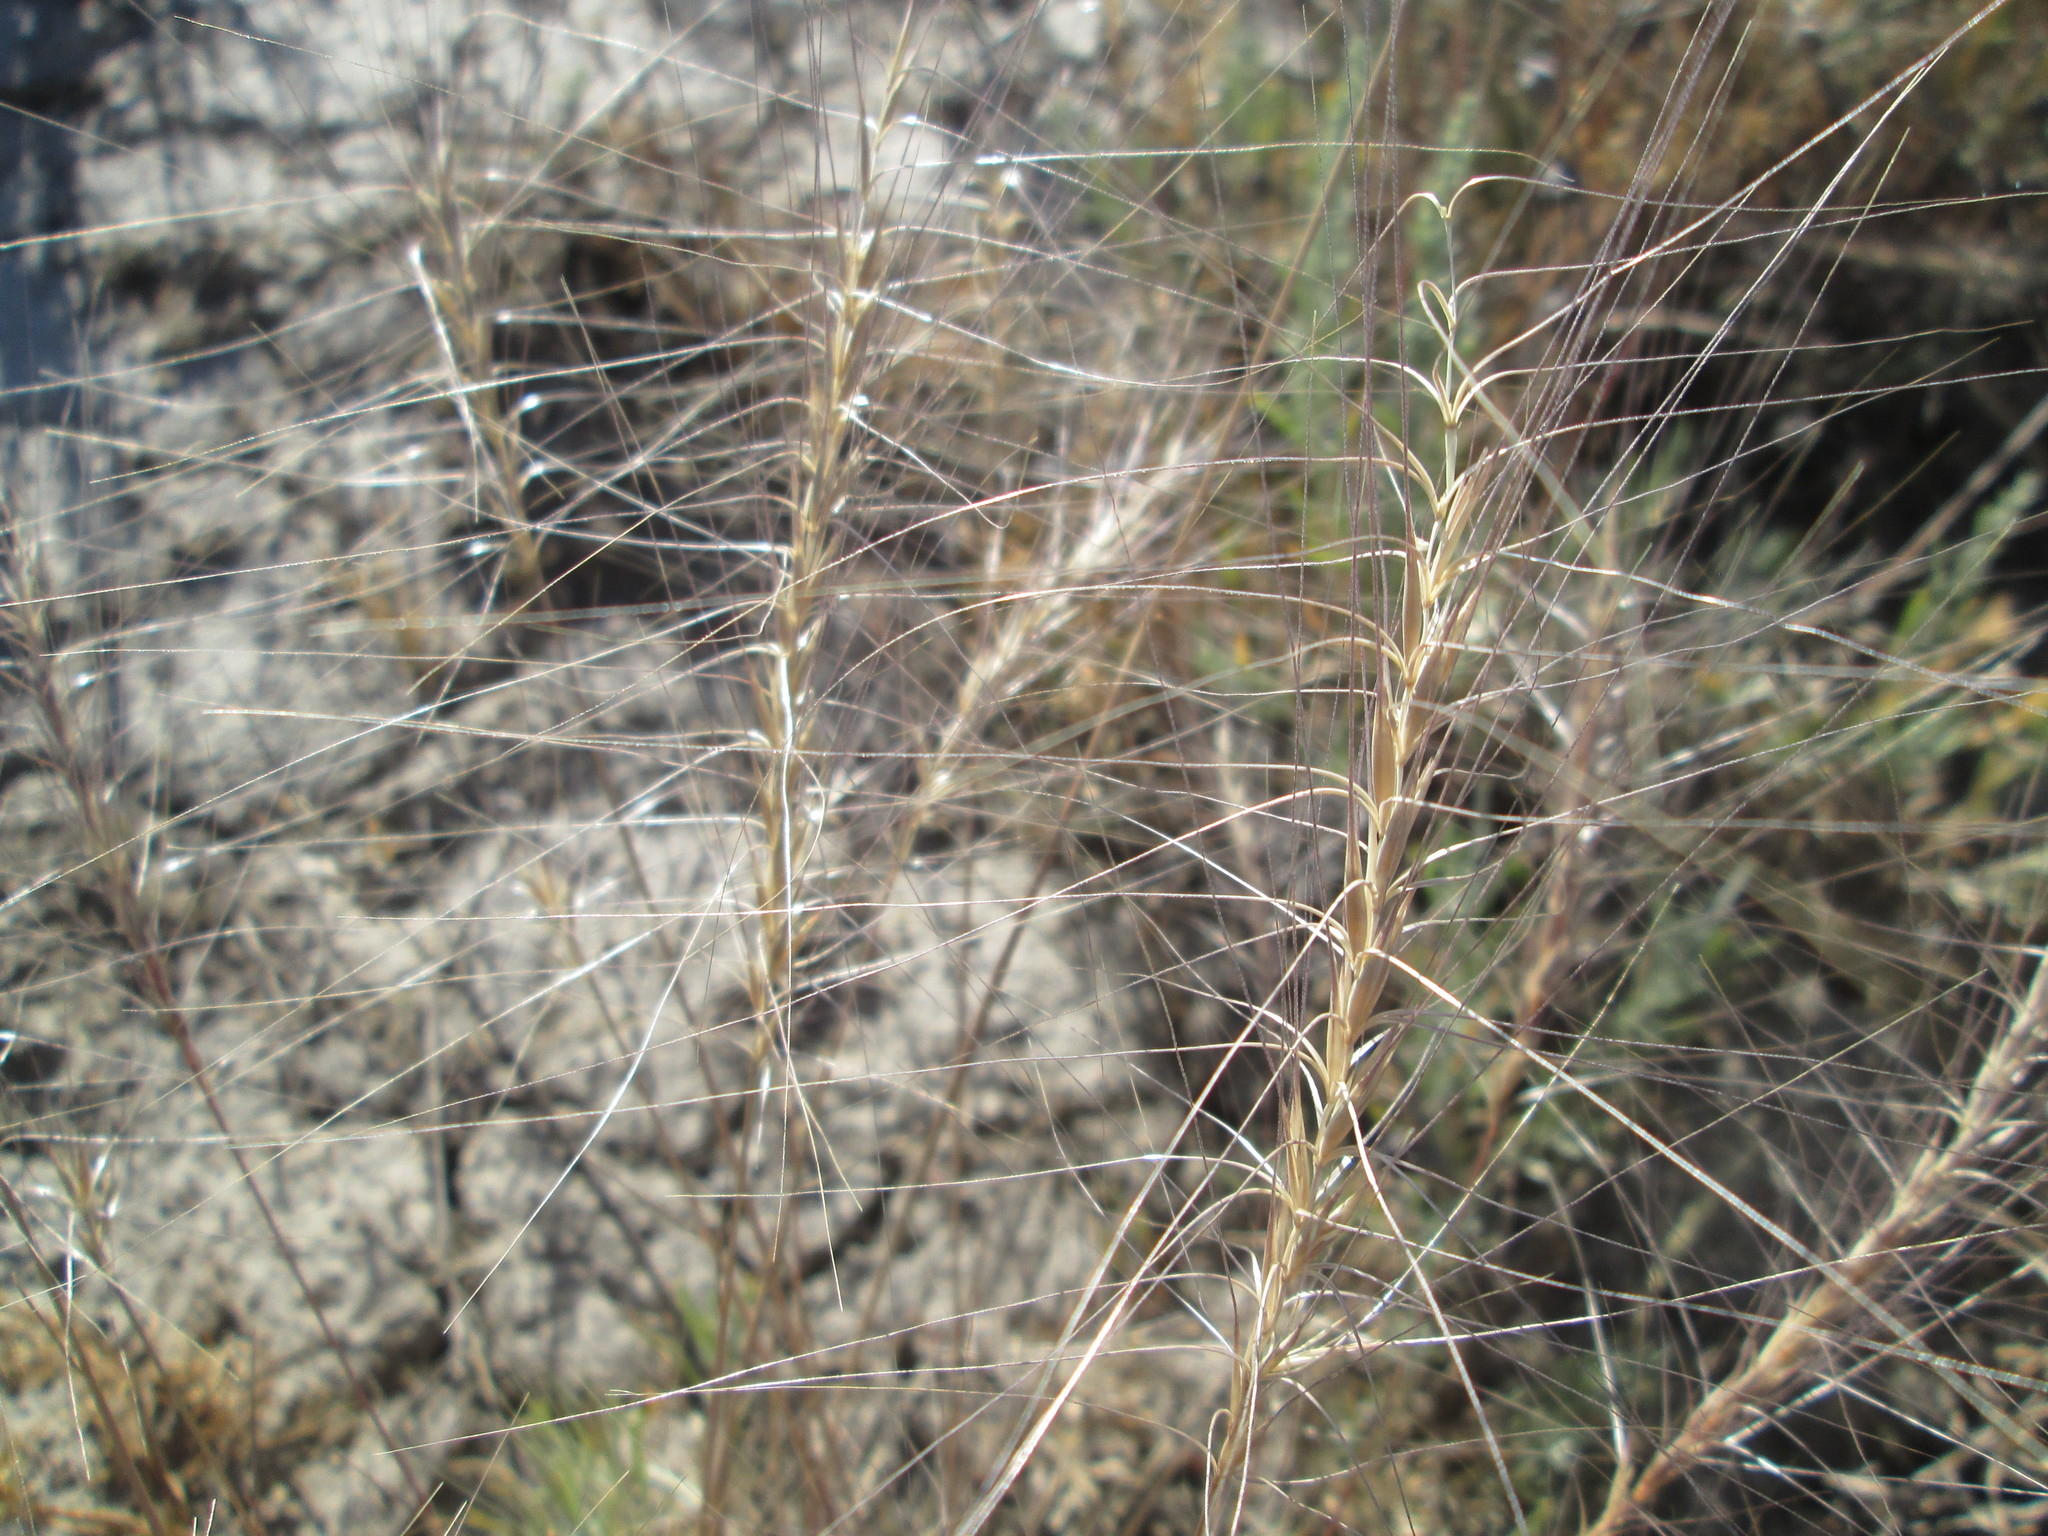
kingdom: Plantae
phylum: Tracheophyta
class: Liliopsida
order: Poales
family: Poaceae
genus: Elymus
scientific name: Elymus elymoides
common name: Bottlebrush squirreltail
